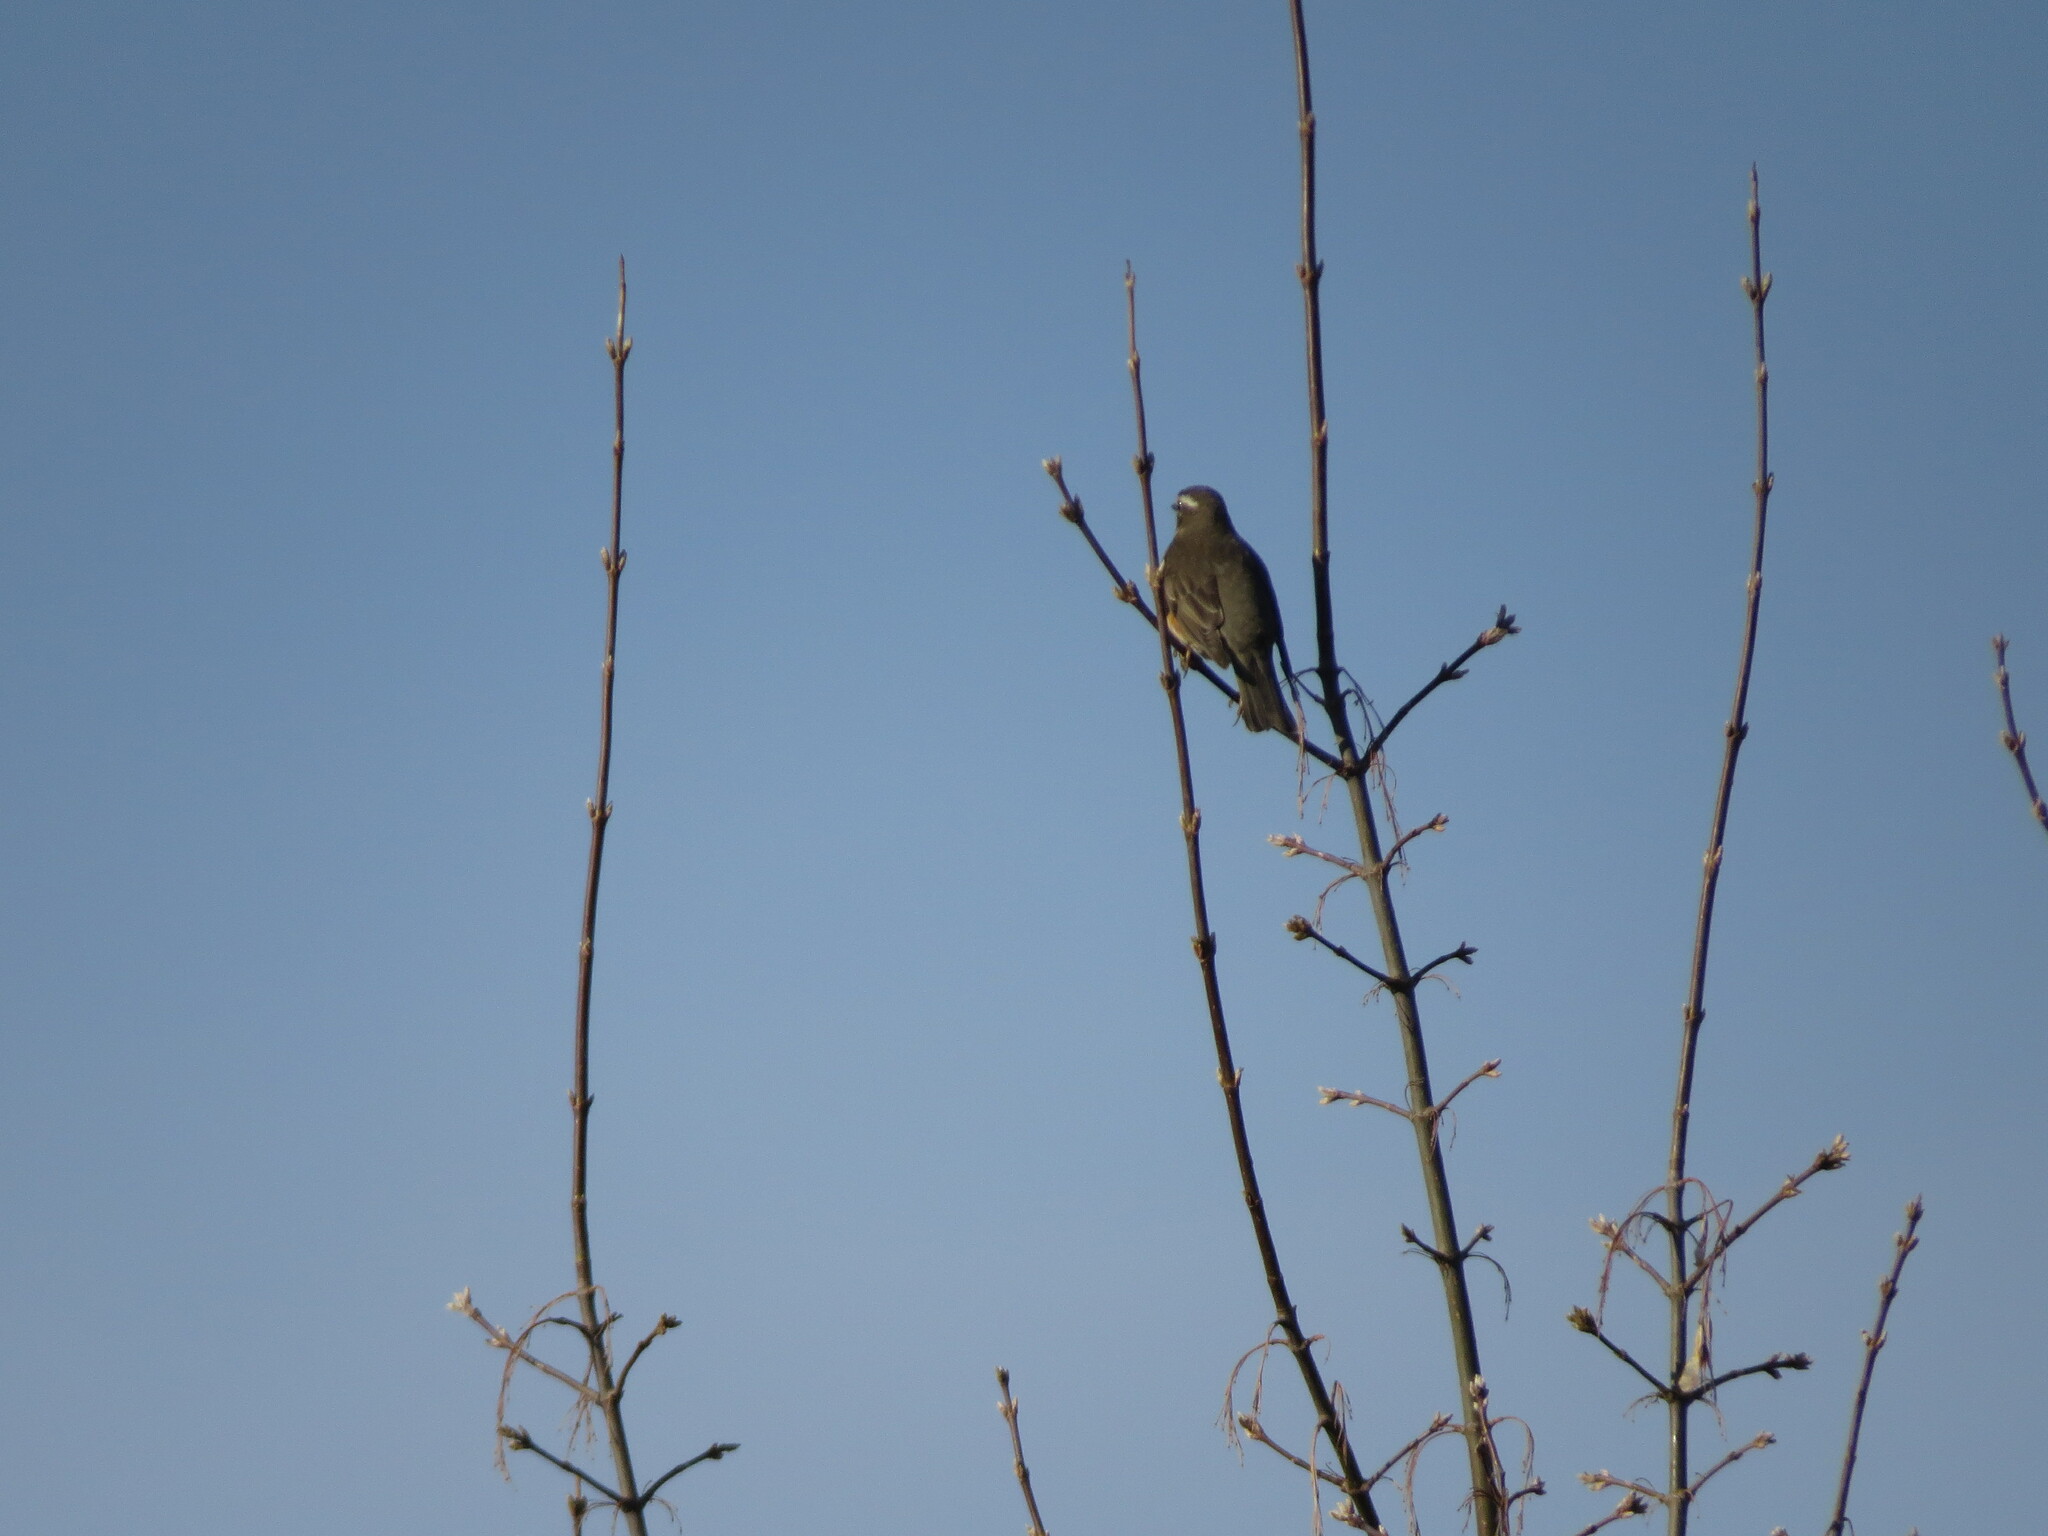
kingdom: Animalia
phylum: Chordata
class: Aves
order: Passeriformes
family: Turdidae
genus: Turdus
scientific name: Turdus iliacus
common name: Redwing
